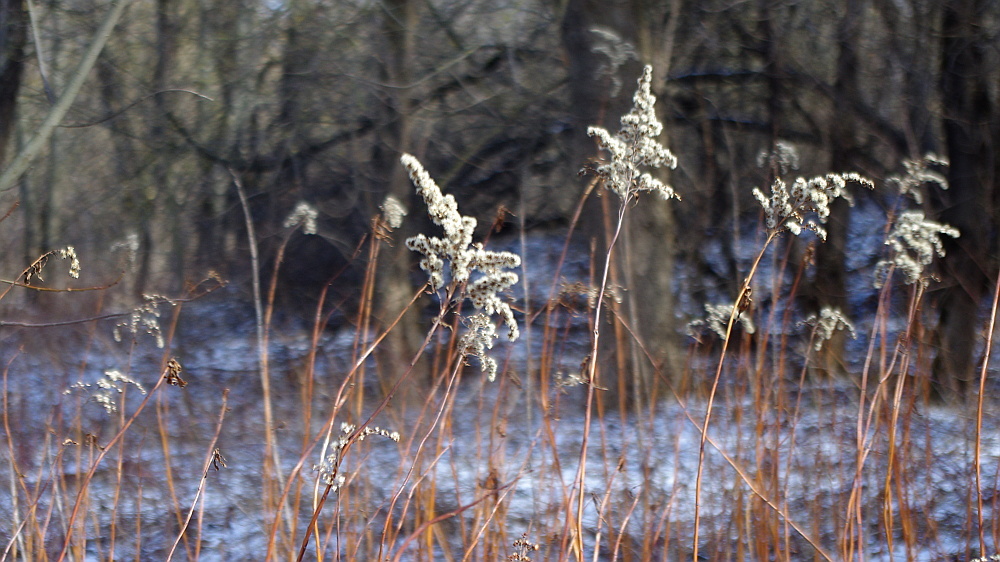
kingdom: Plantae
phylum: Tracheophyta
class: Magnoliopsida
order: Asterales
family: Asteraceae
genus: Solidago
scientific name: Solidago gigantea
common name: Giant goldenrod
